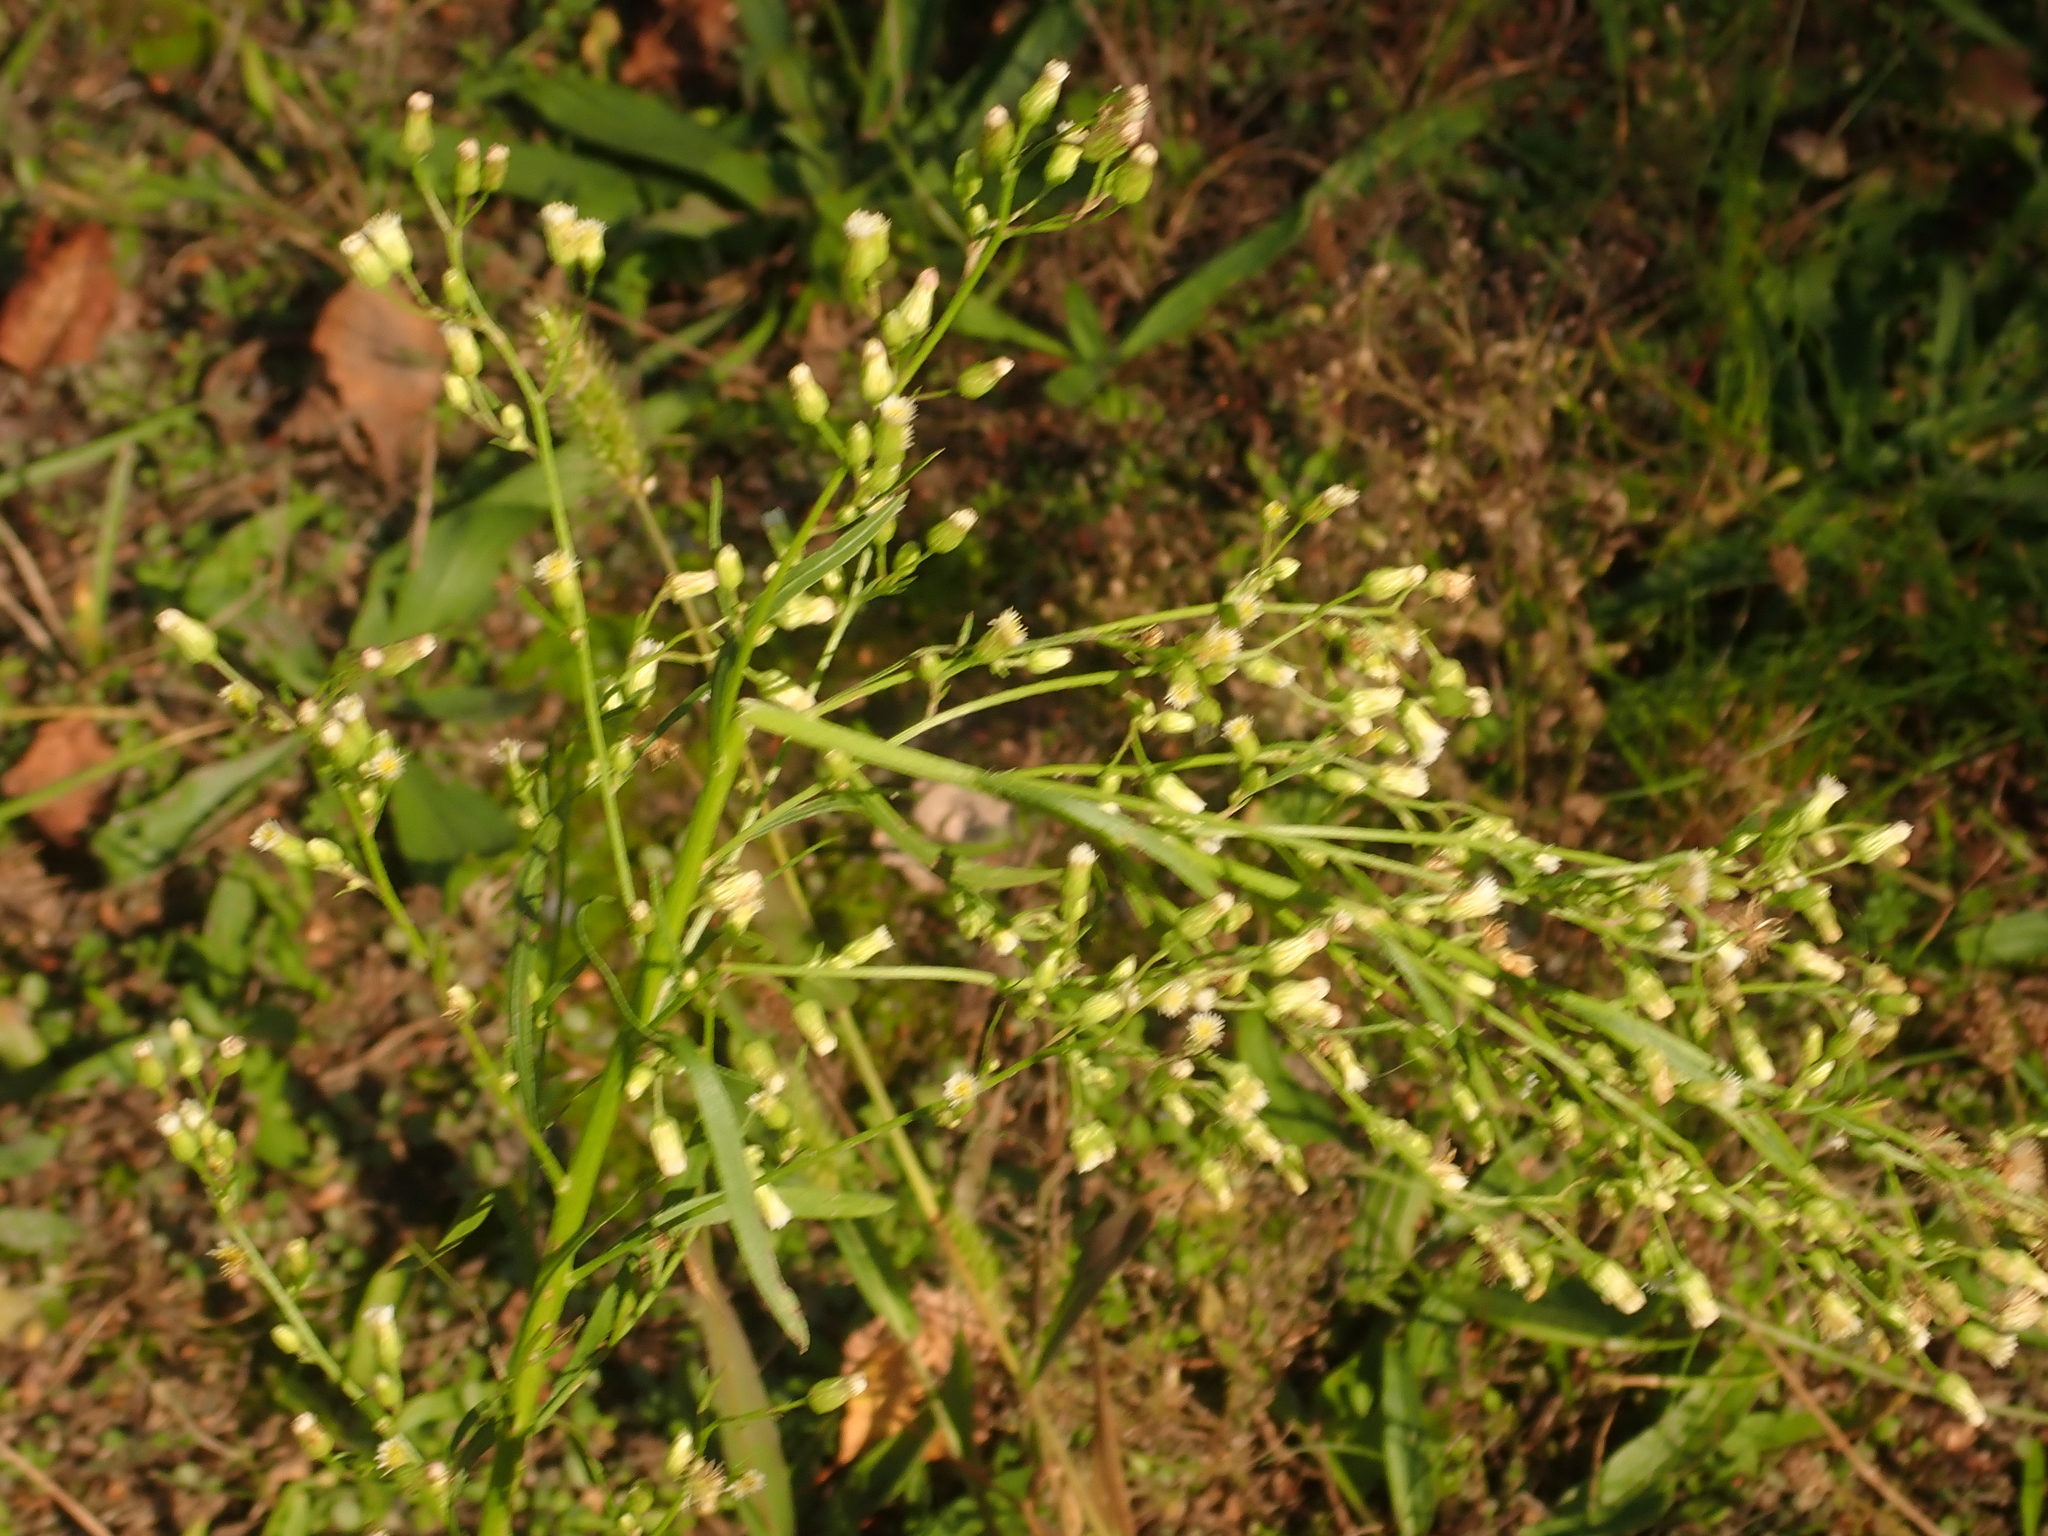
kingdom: Plantae
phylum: Tracheophyta
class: Magnoliopsida
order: Asterales
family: Asteraceae
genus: Erigeron
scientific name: Erigeron canadensis
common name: Canadian fleabane
